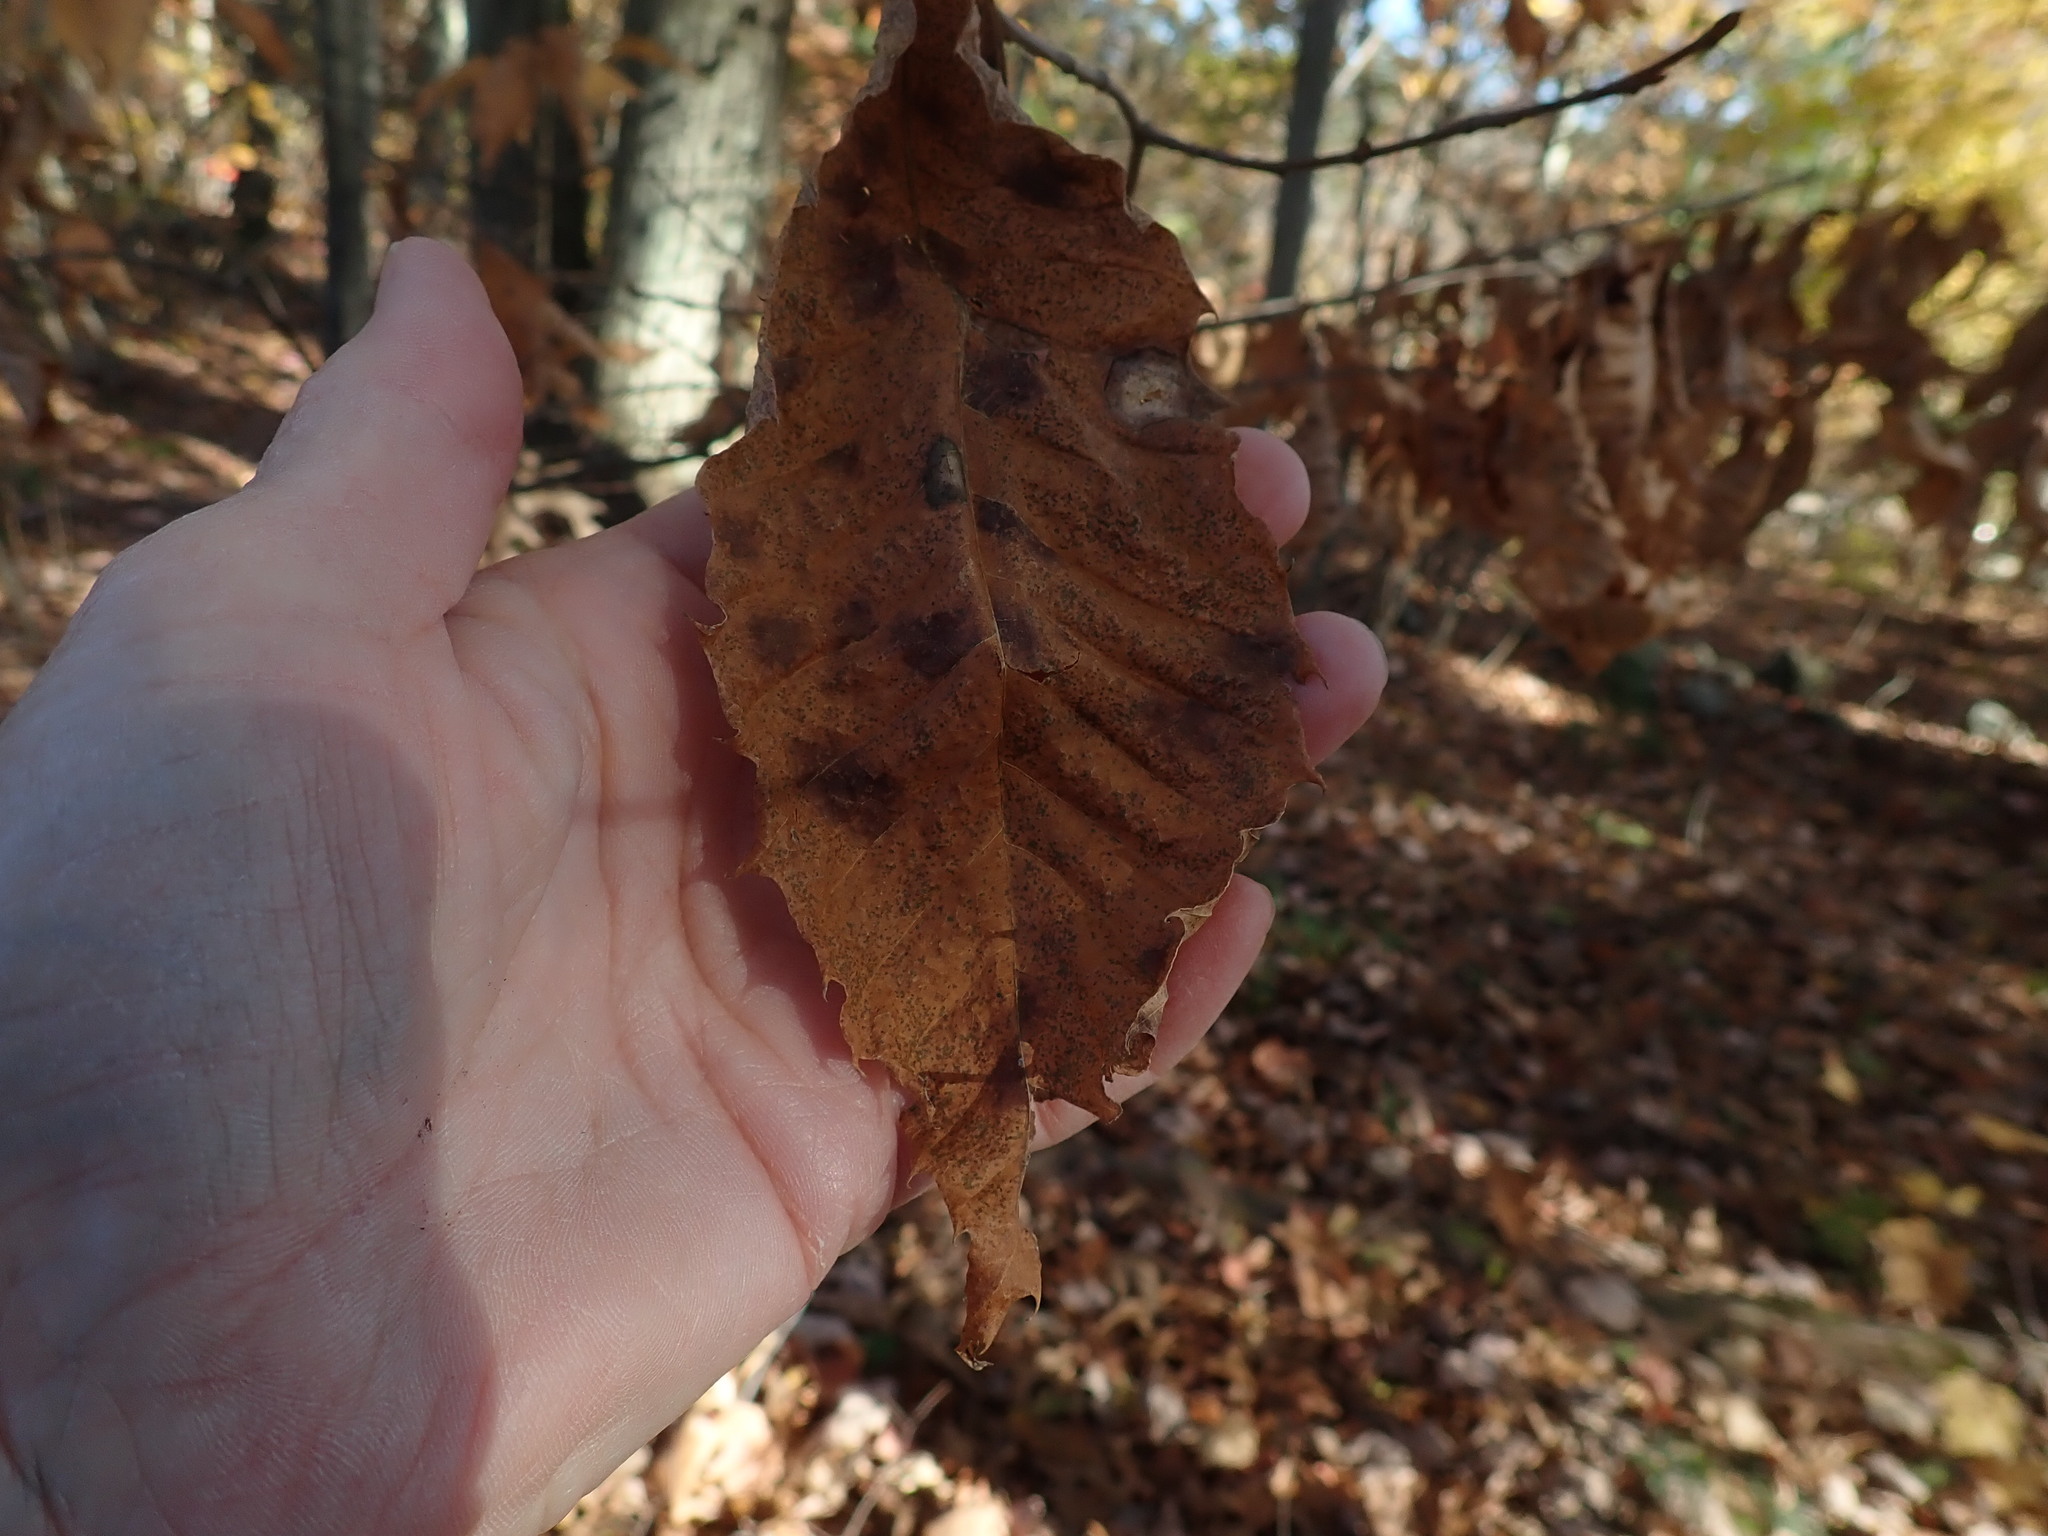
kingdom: Plantae
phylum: Tracheophyta
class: Magnoliopsida
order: Fagales
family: Fagaceae
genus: Castanea
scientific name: Castanea dentata
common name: American chestnut
